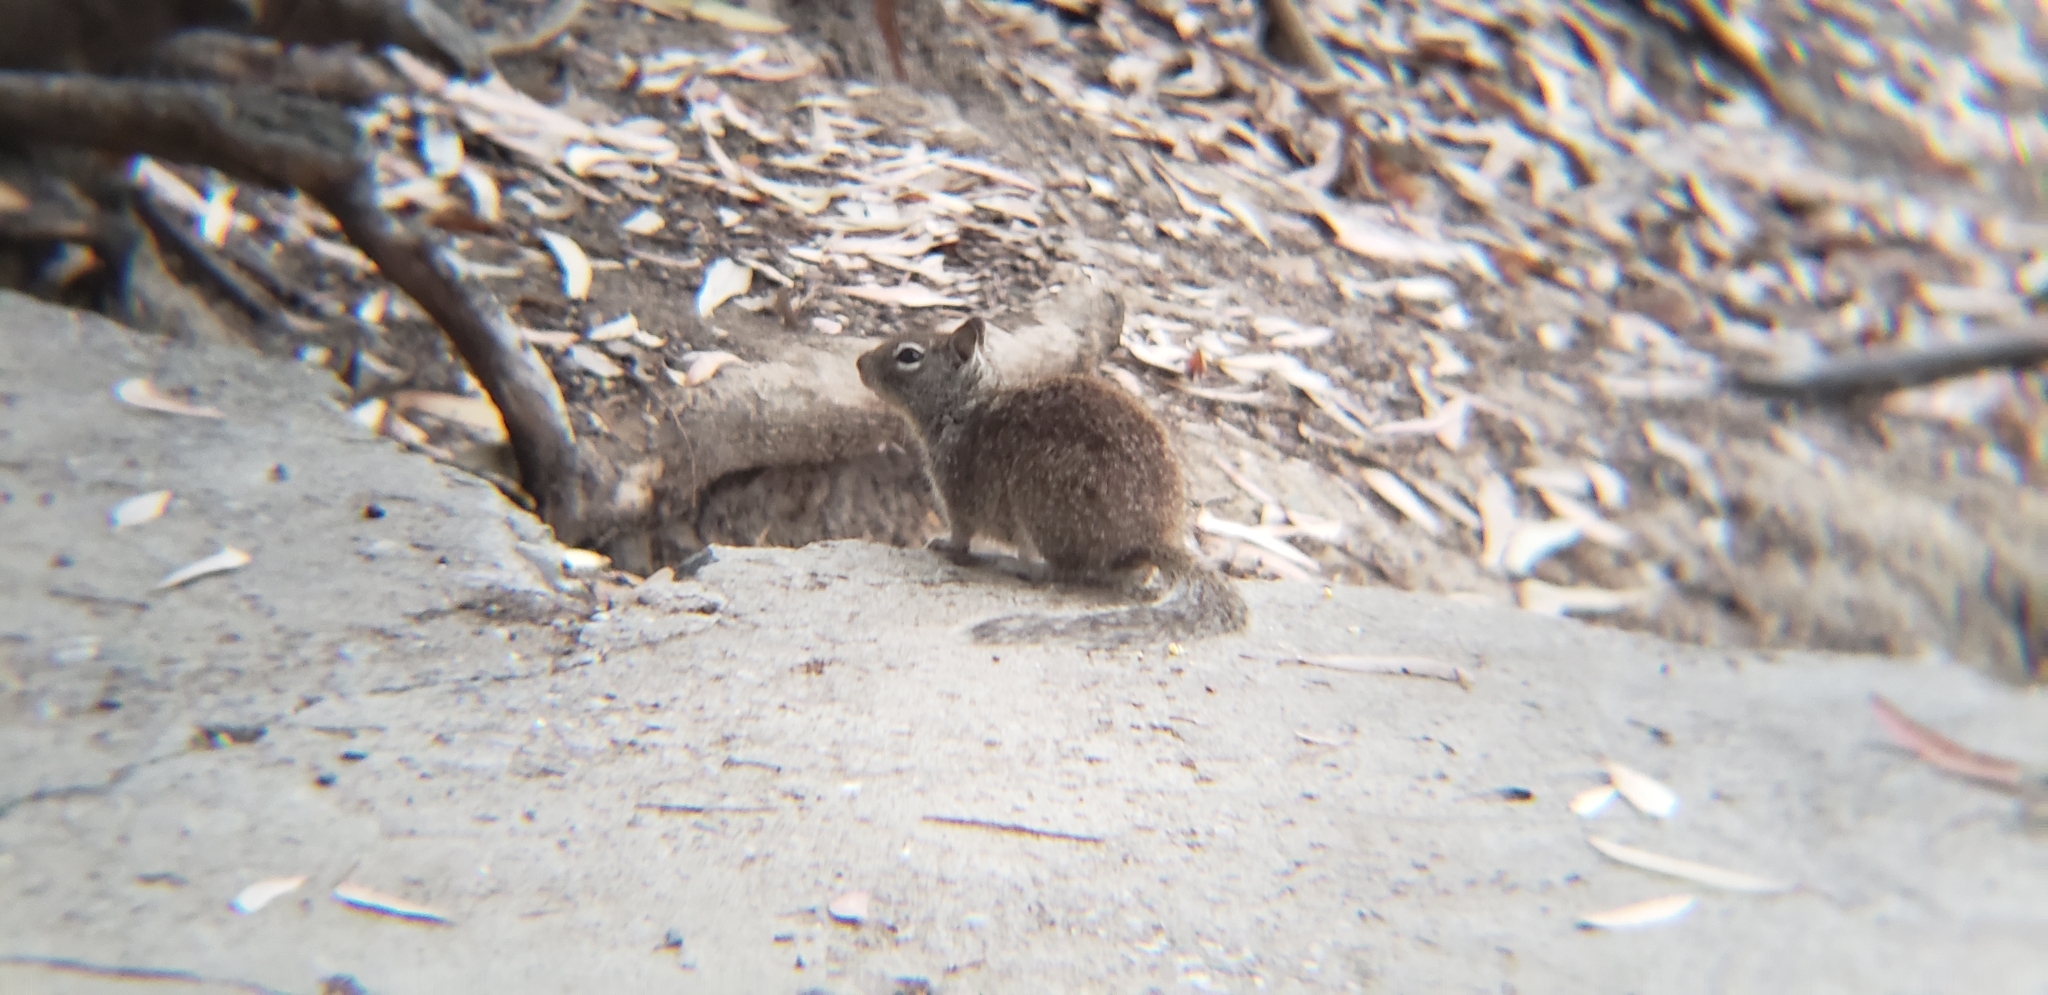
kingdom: Animalia
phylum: Chordata
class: Mammalia
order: Rodentia
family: Sciuridae
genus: Otospermophilus
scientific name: Otospermophilus beecheyi
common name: California ground squirrel
